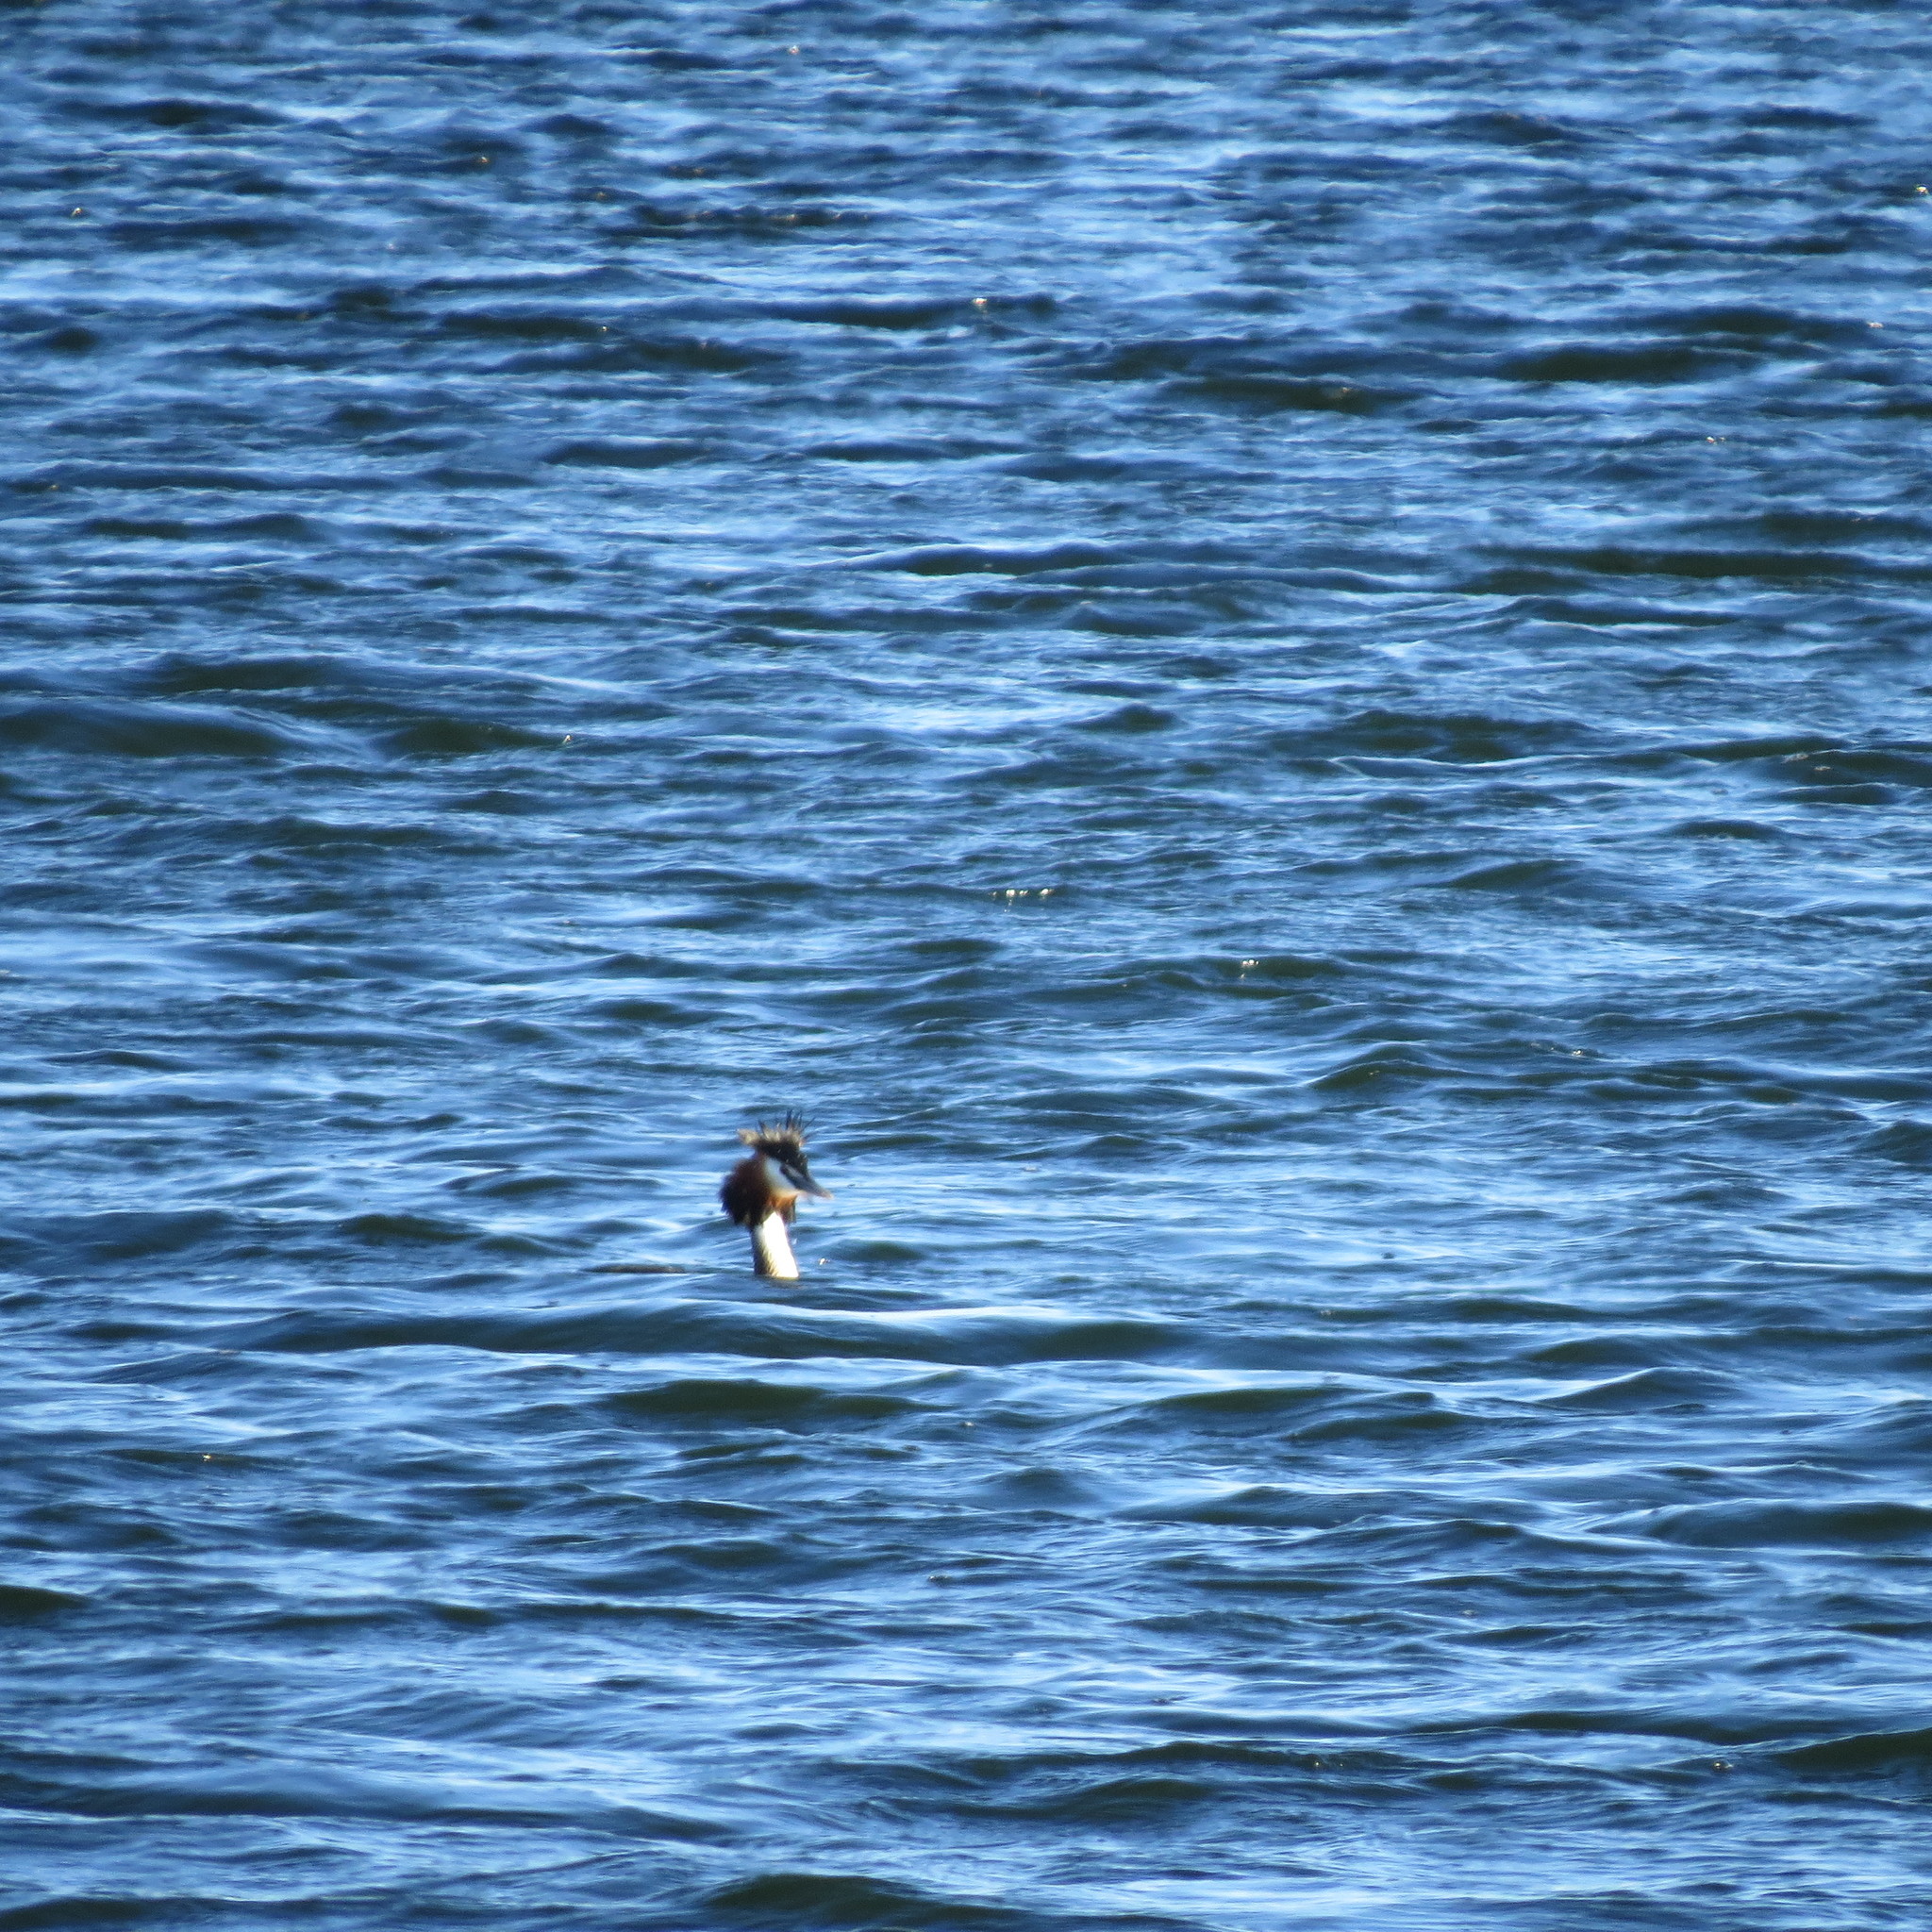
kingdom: Animalia
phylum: Chordata
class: Aves
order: Podicipediformes
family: Podicipedidae
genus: Podiceps
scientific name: Podiceps cristatus
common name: Great crested grebe
